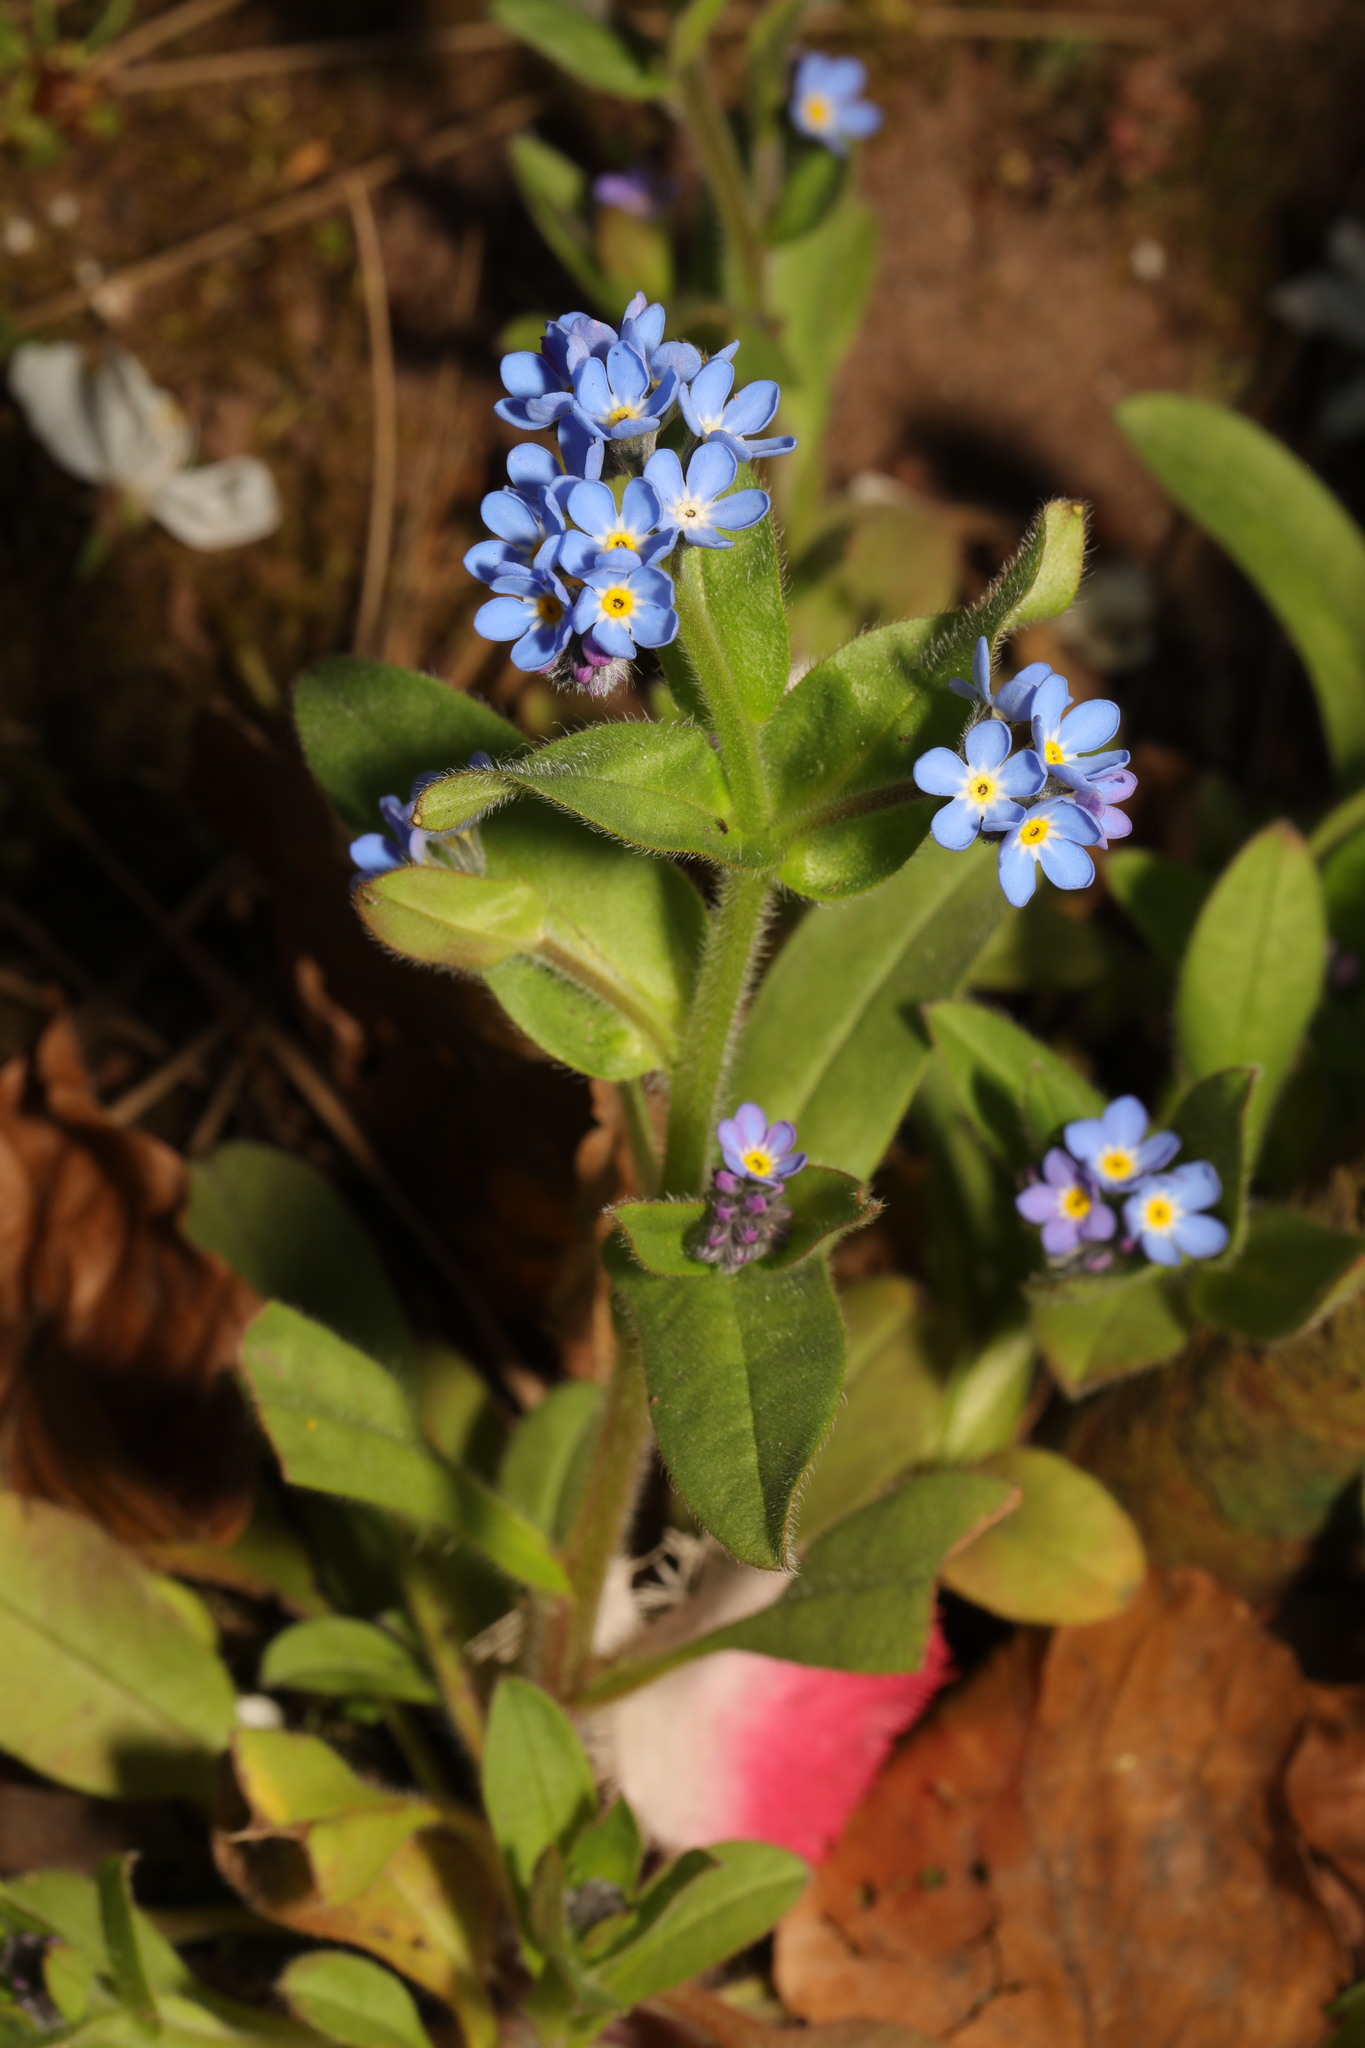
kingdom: Plantae
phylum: Tracheophyta
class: Magnoliopsida
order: Boraginales
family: Boraginaceae
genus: Myosotis
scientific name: Myosotis sylvatica
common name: Wood forget-me-not
